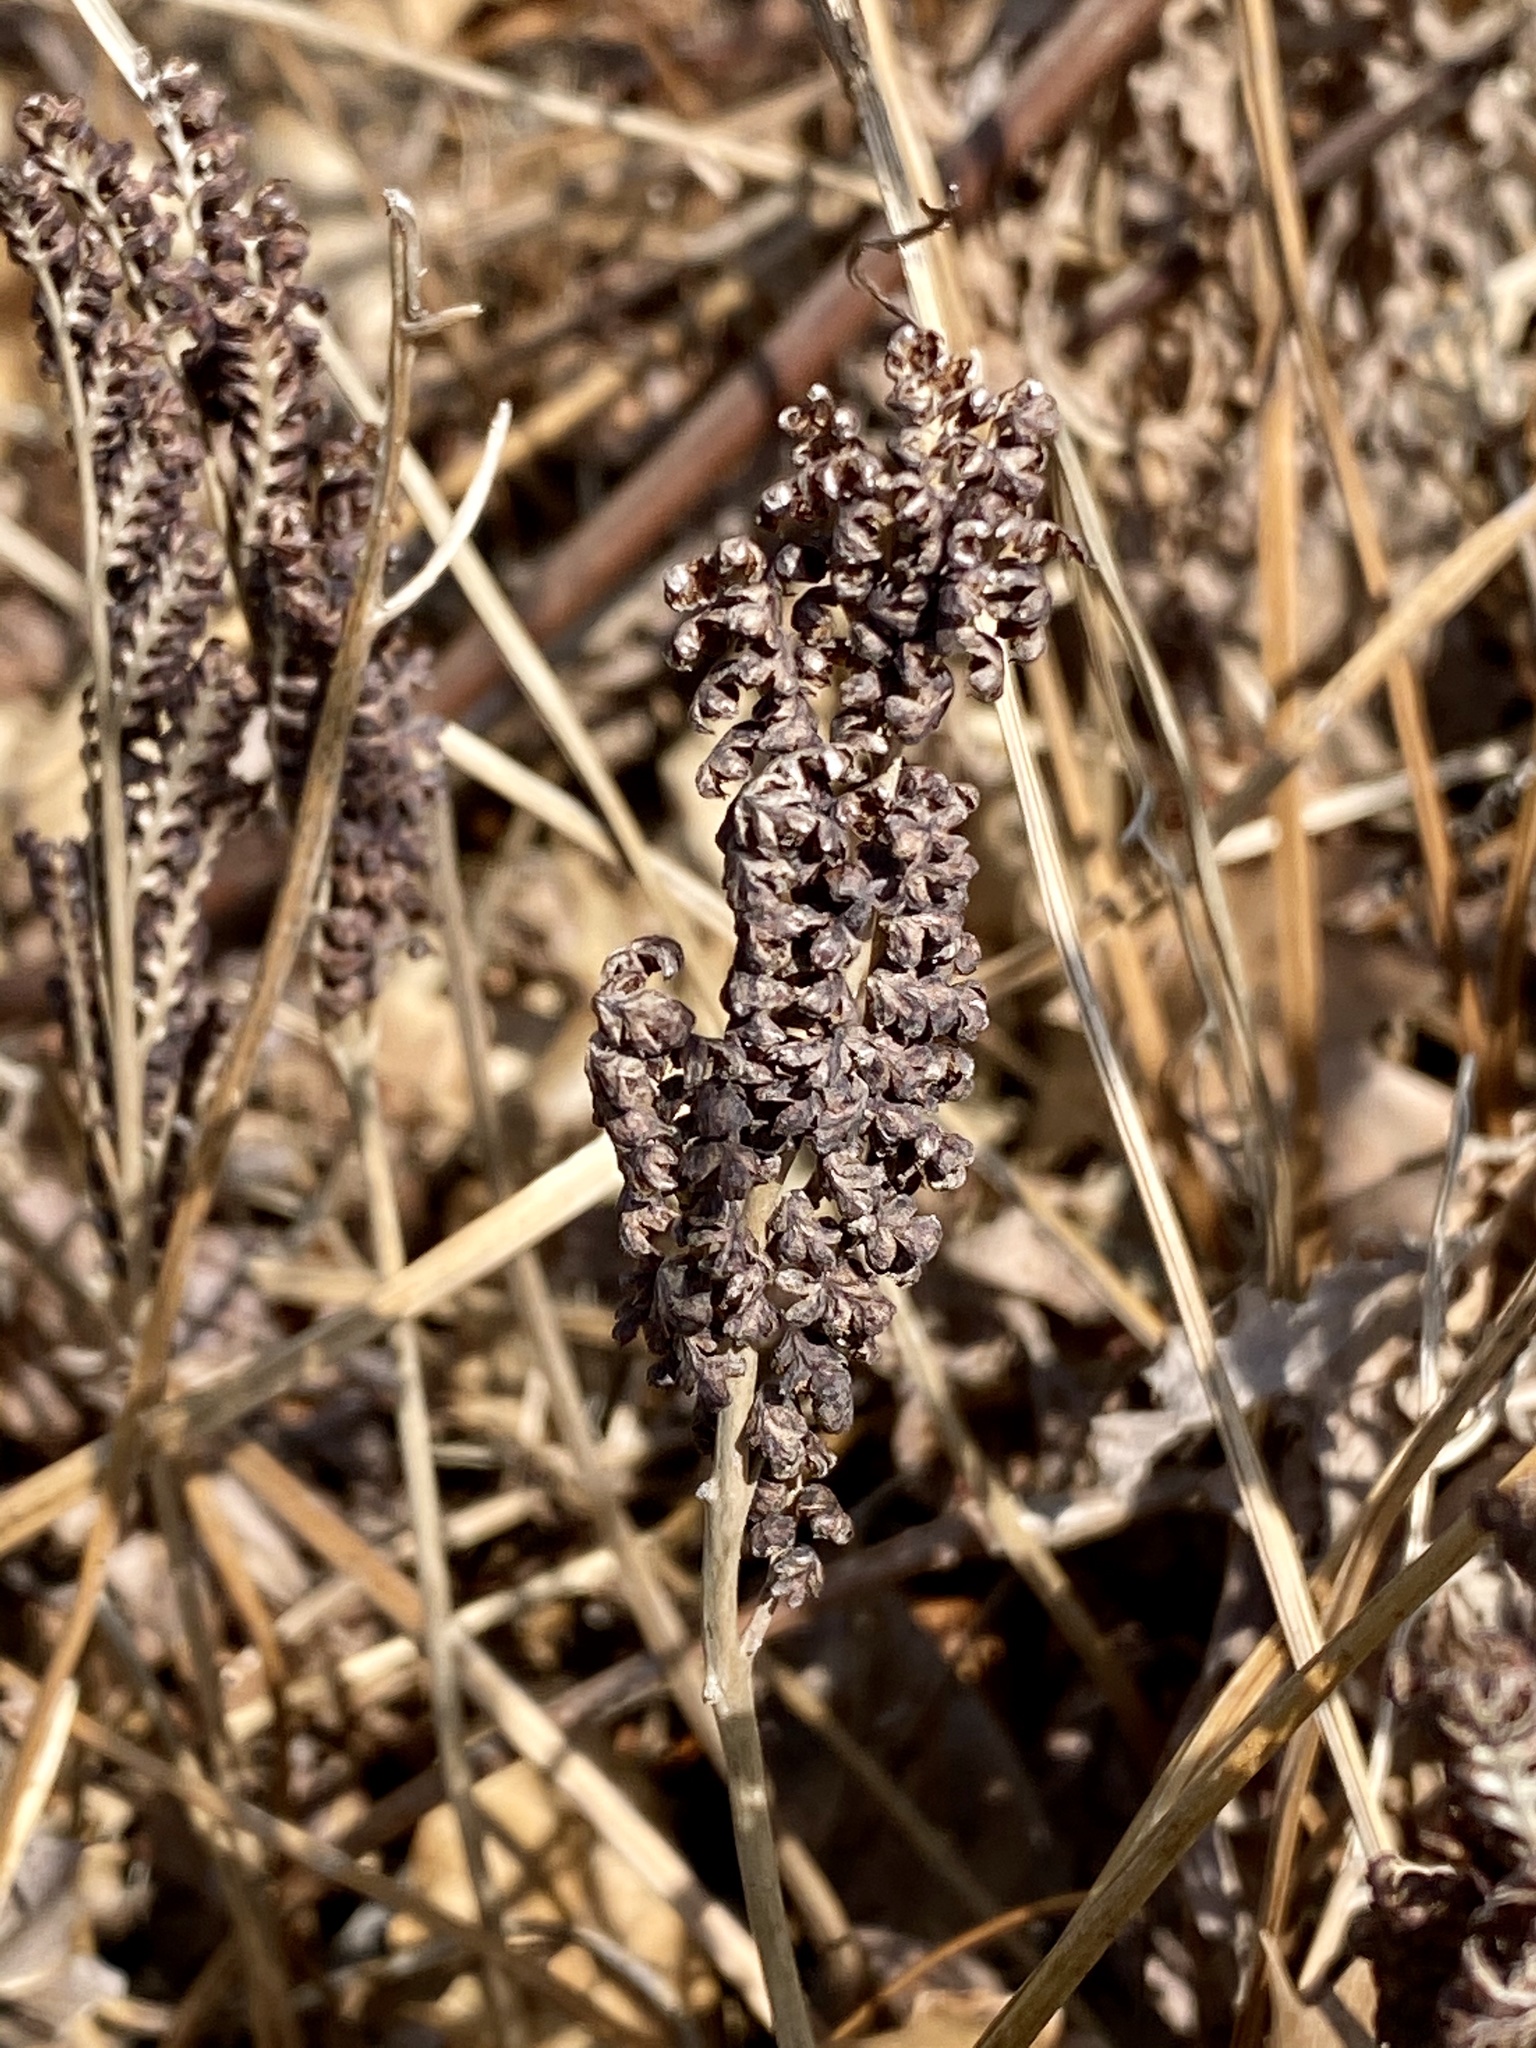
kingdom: Plantae
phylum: Tracheophyta
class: Polypodiopsida
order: Polypodiales
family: Onocleaceae
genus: Onoclea
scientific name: Onoclea sensibilis
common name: Sensitive fern
